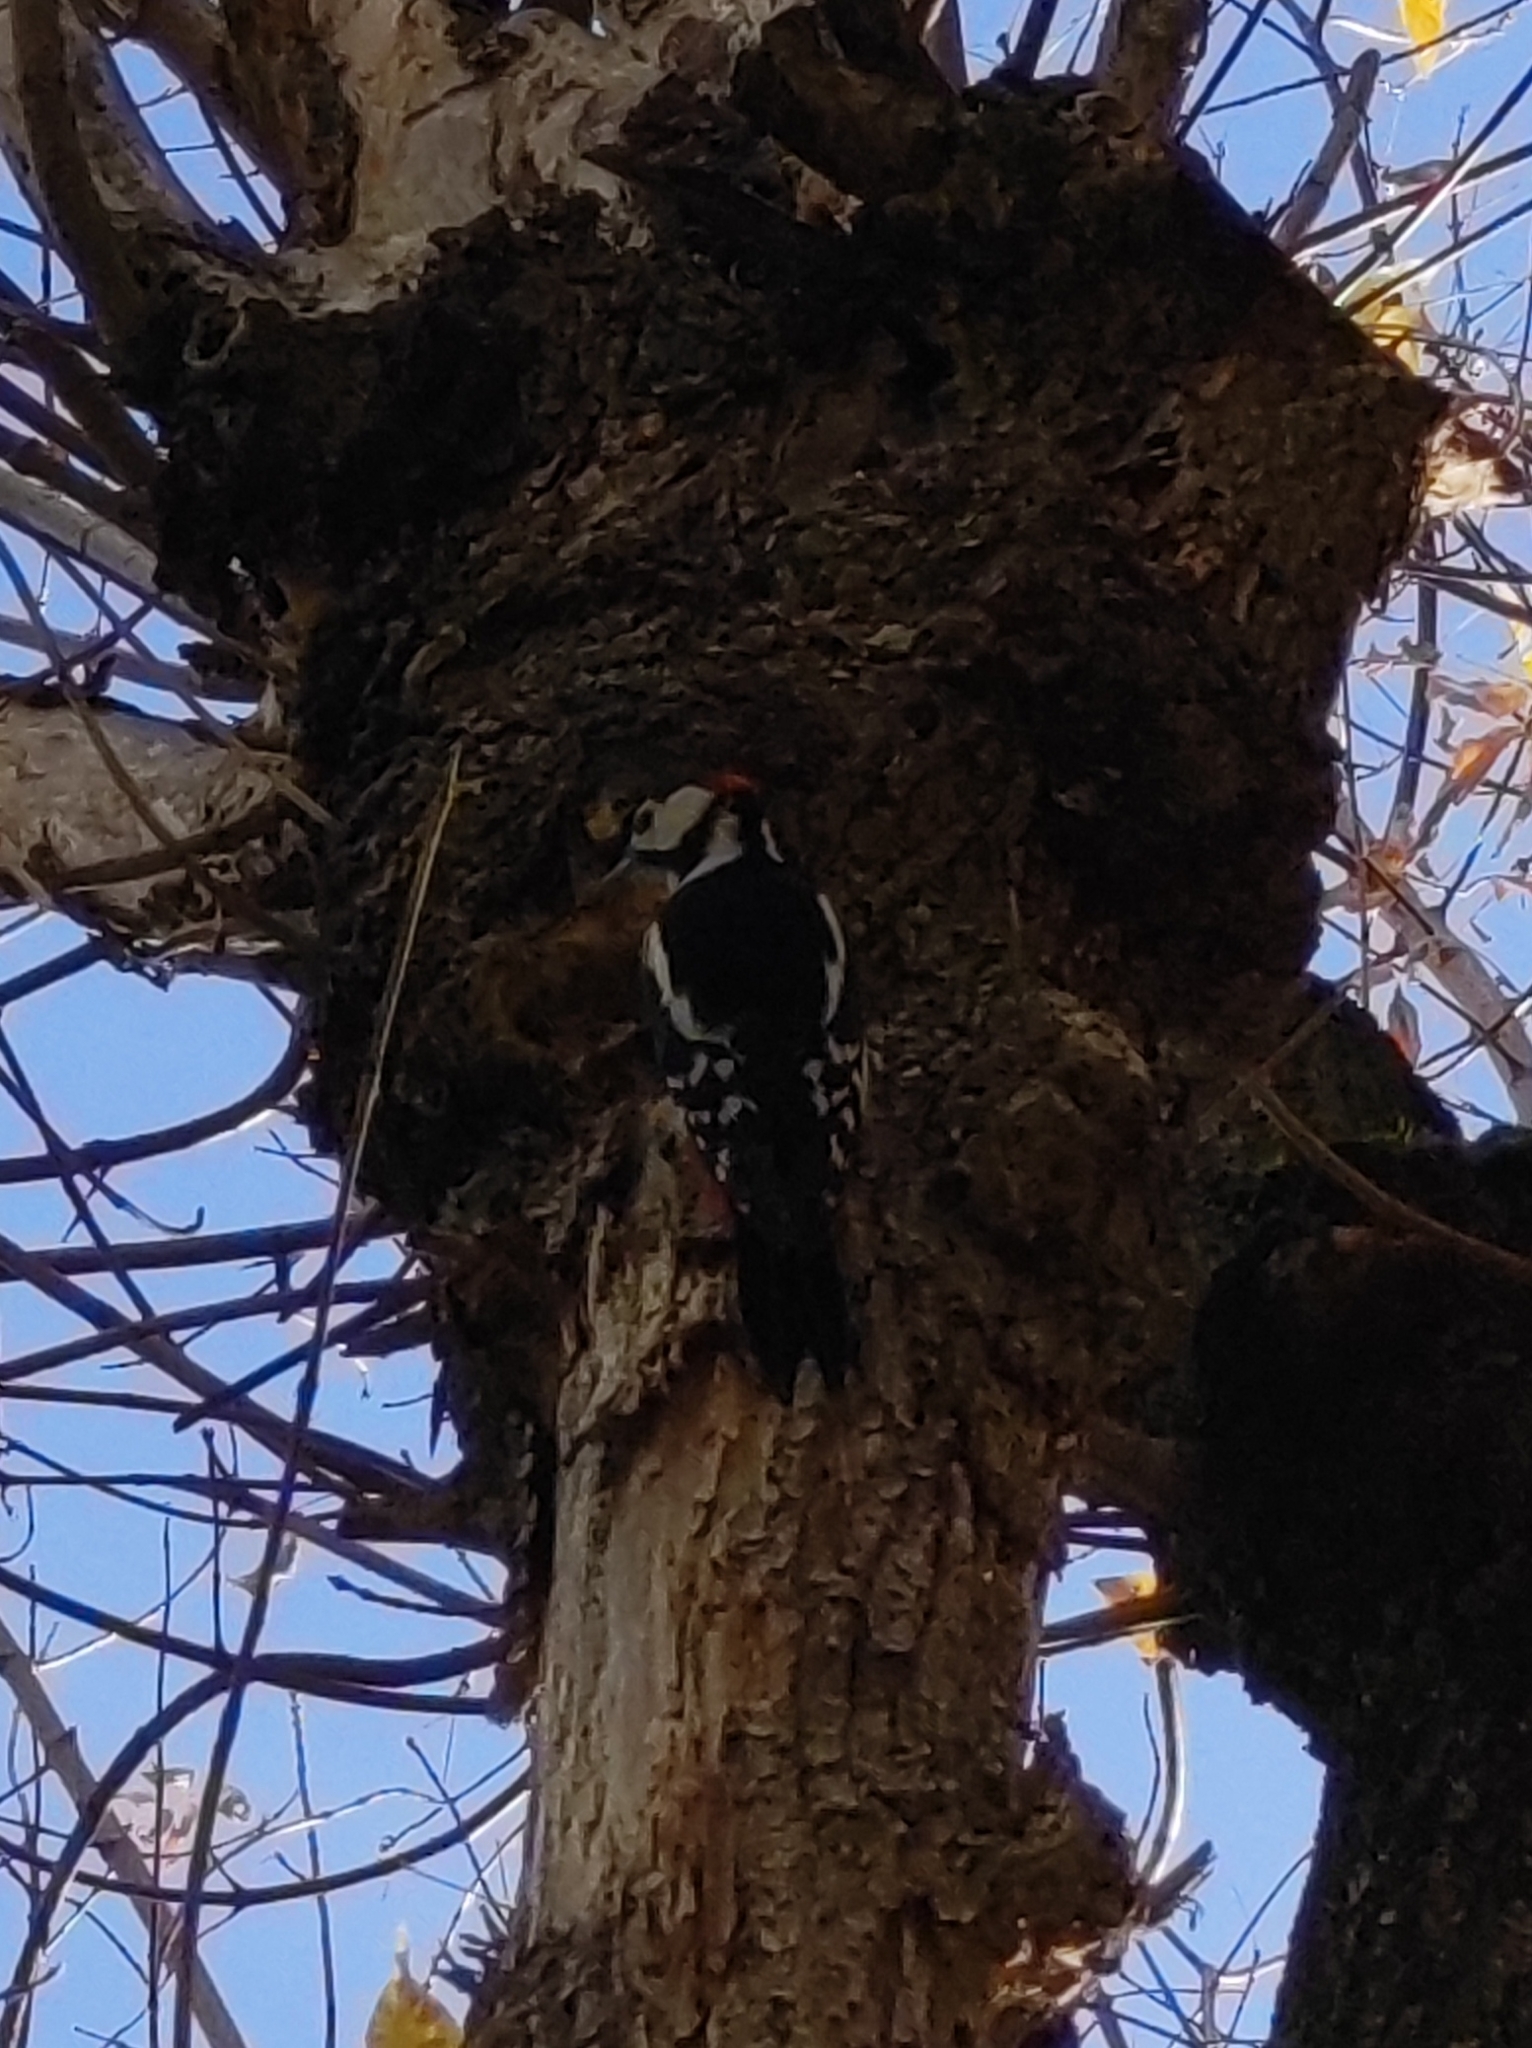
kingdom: Animalia
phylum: Chordata
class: Aves
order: Piciformes
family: Picidae
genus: Dendrocopos
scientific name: Dendrocopos major
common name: Great spotted woodpecker
